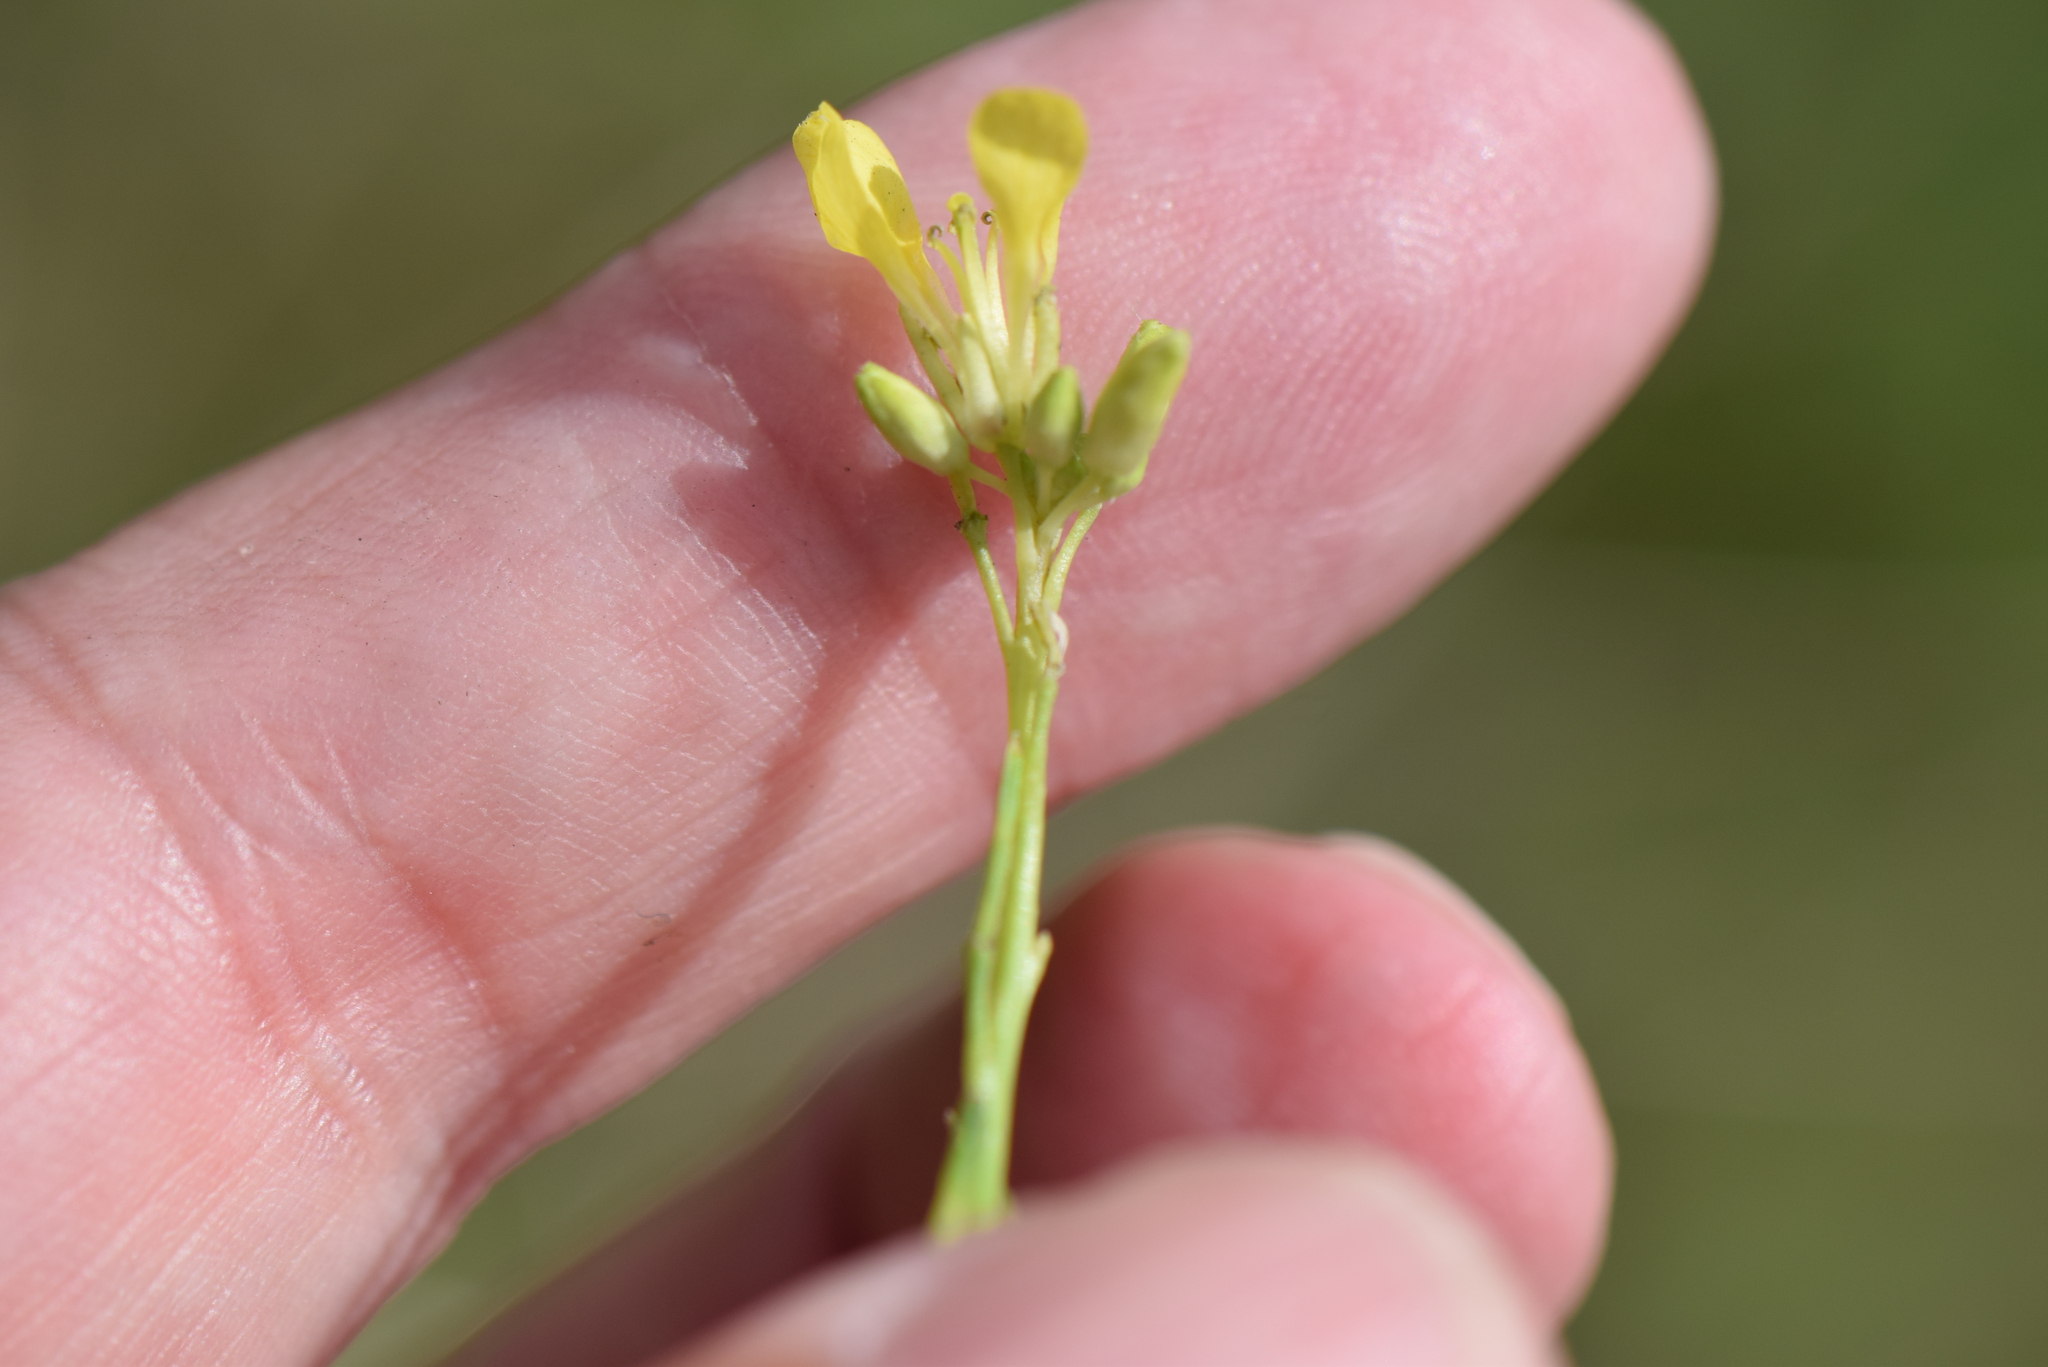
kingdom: Plantae
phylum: Tracheophyta
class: Magnoliopsida
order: Brassicales
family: Brassicaceae
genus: Hirschfeldia
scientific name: Hirschfeldia incana
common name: Hoary mustard
